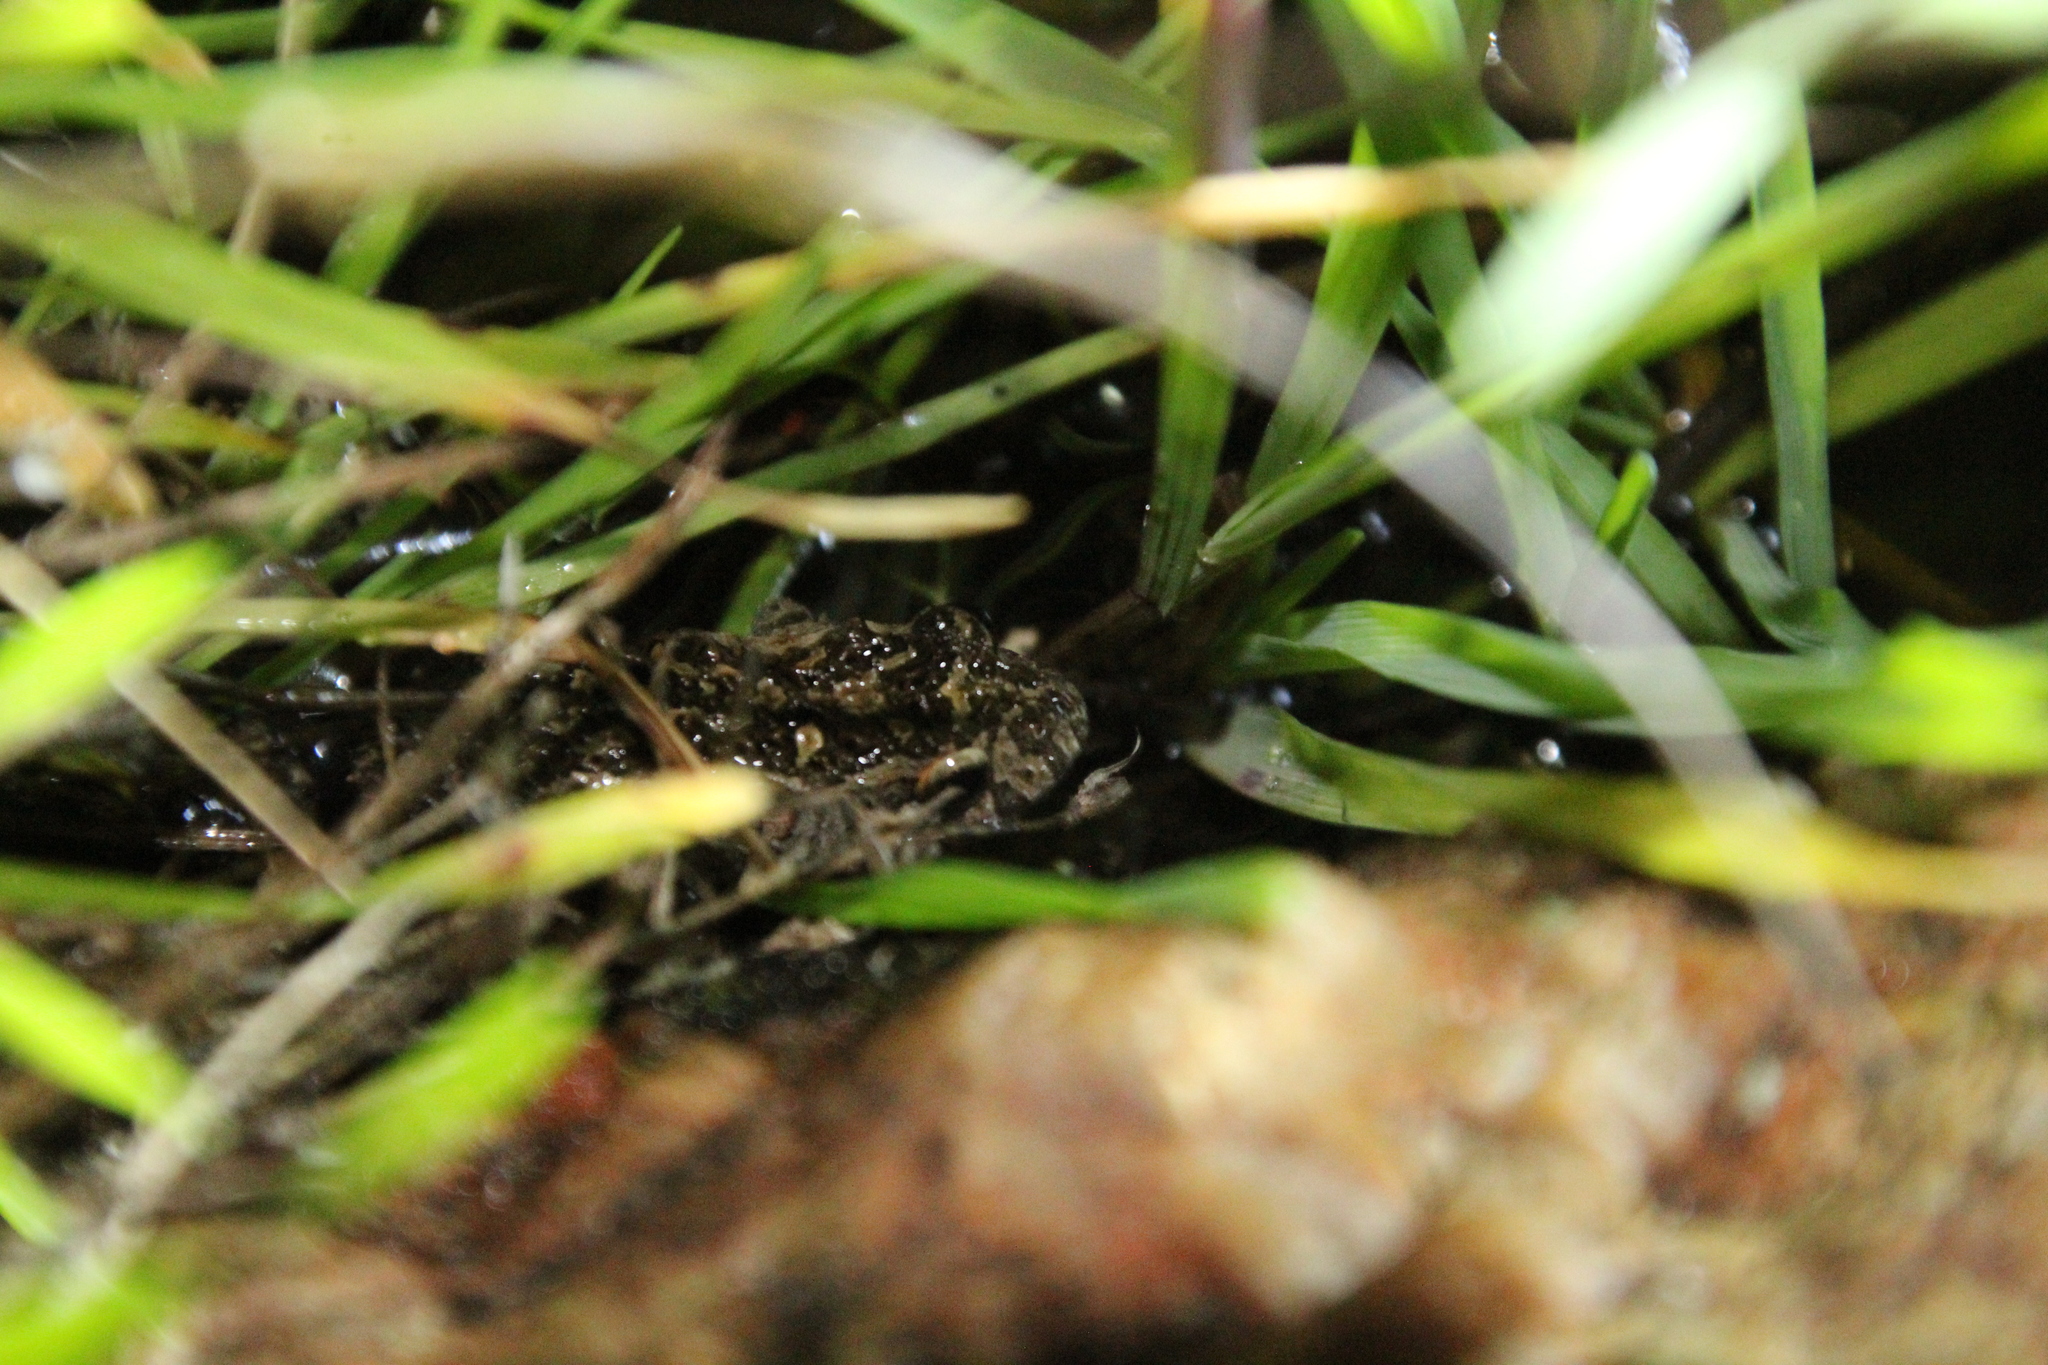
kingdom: Animalia
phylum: Chordata
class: Amphibia
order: Anura
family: Myobatrachidae
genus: Crinia
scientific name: Crinia georgiana
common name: Quacking frog
